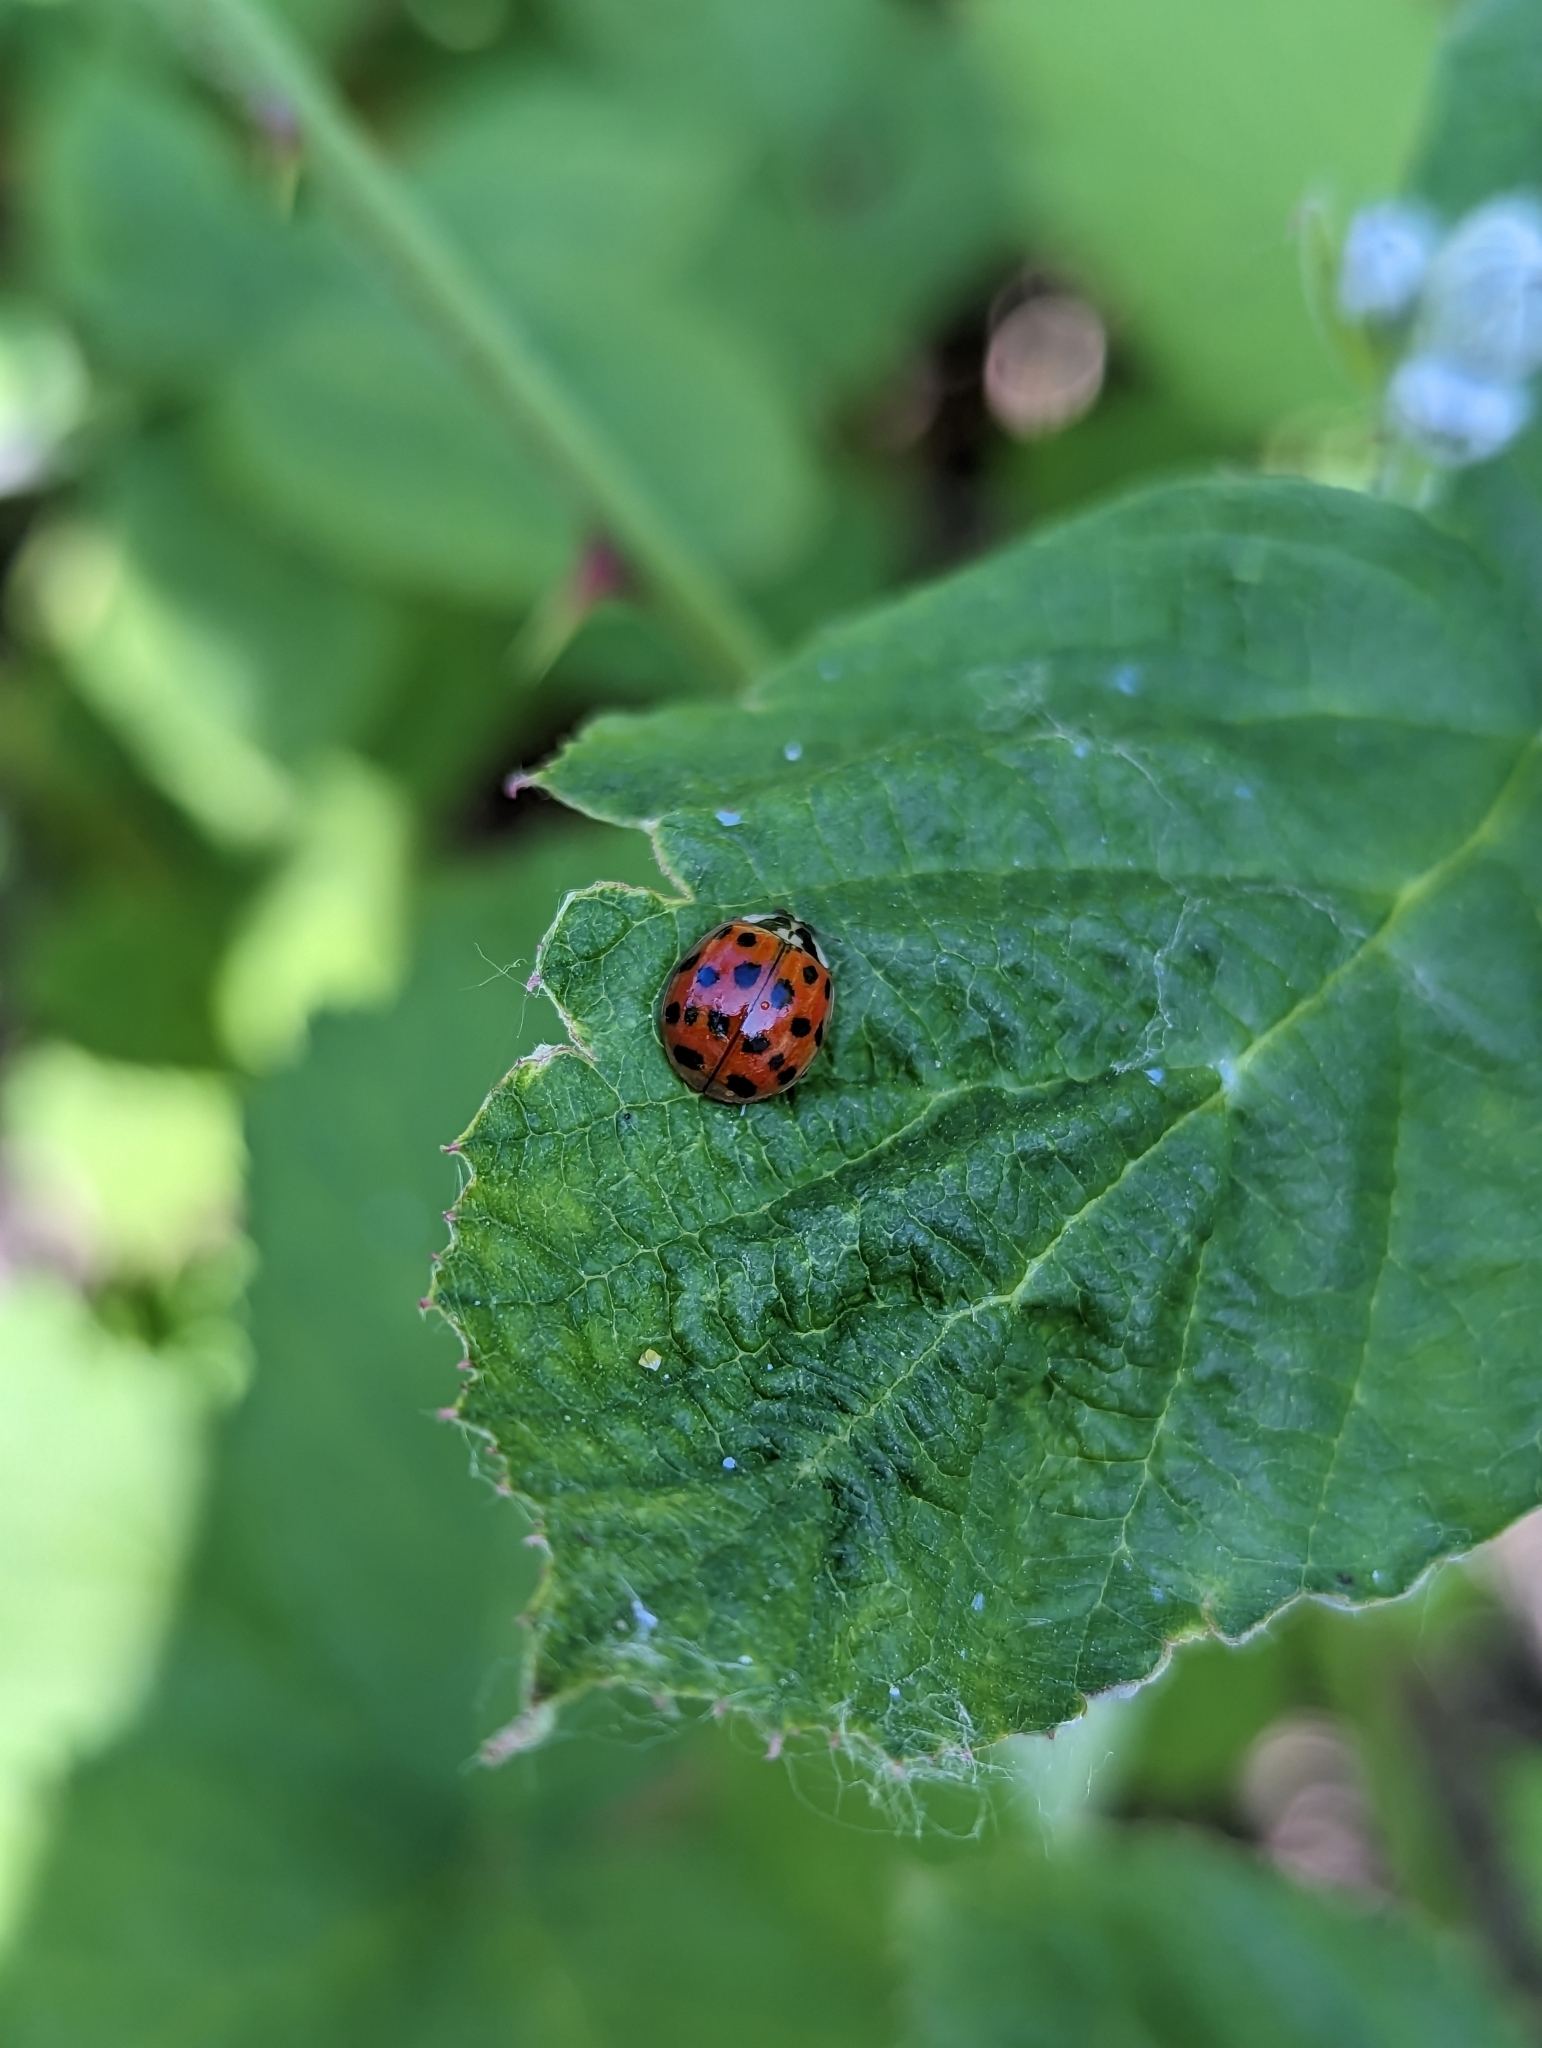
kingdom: Animalia
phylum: Arthropoda
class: Insecta
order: Coleoptera
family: Coccinellidae
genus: Harmonia
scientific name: Harmonia axyridis
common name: Harlequin ladybird
